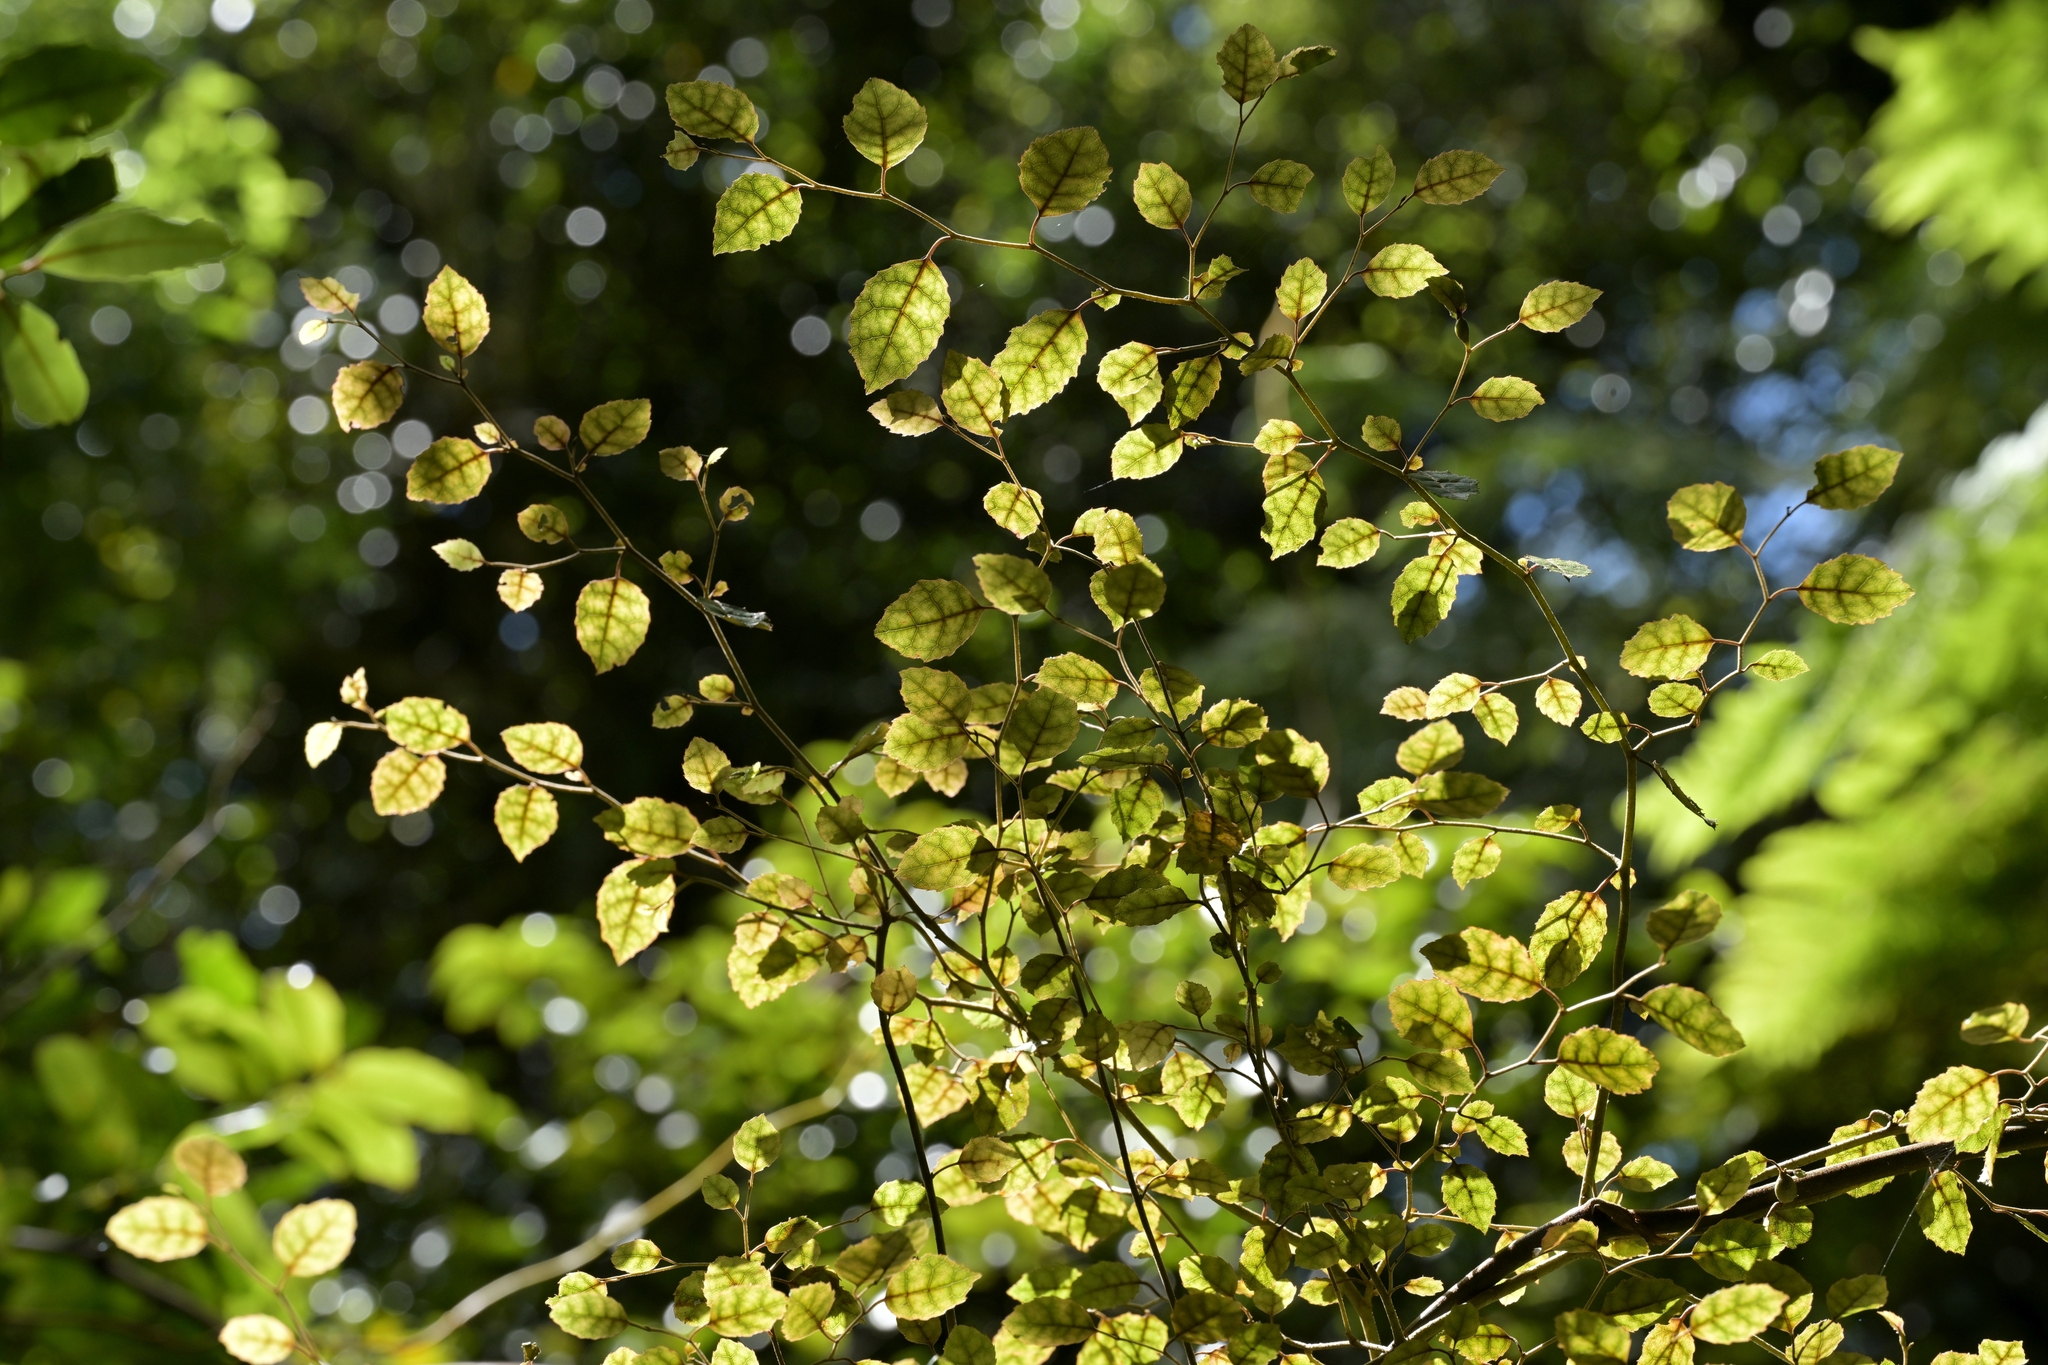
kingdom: Plantae
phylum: Tracheophyta
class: Magnoliopsida
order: Asterales
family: Rousseaceae
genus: Carpodetus
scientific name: Carpodetus serratus
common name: White mapau
